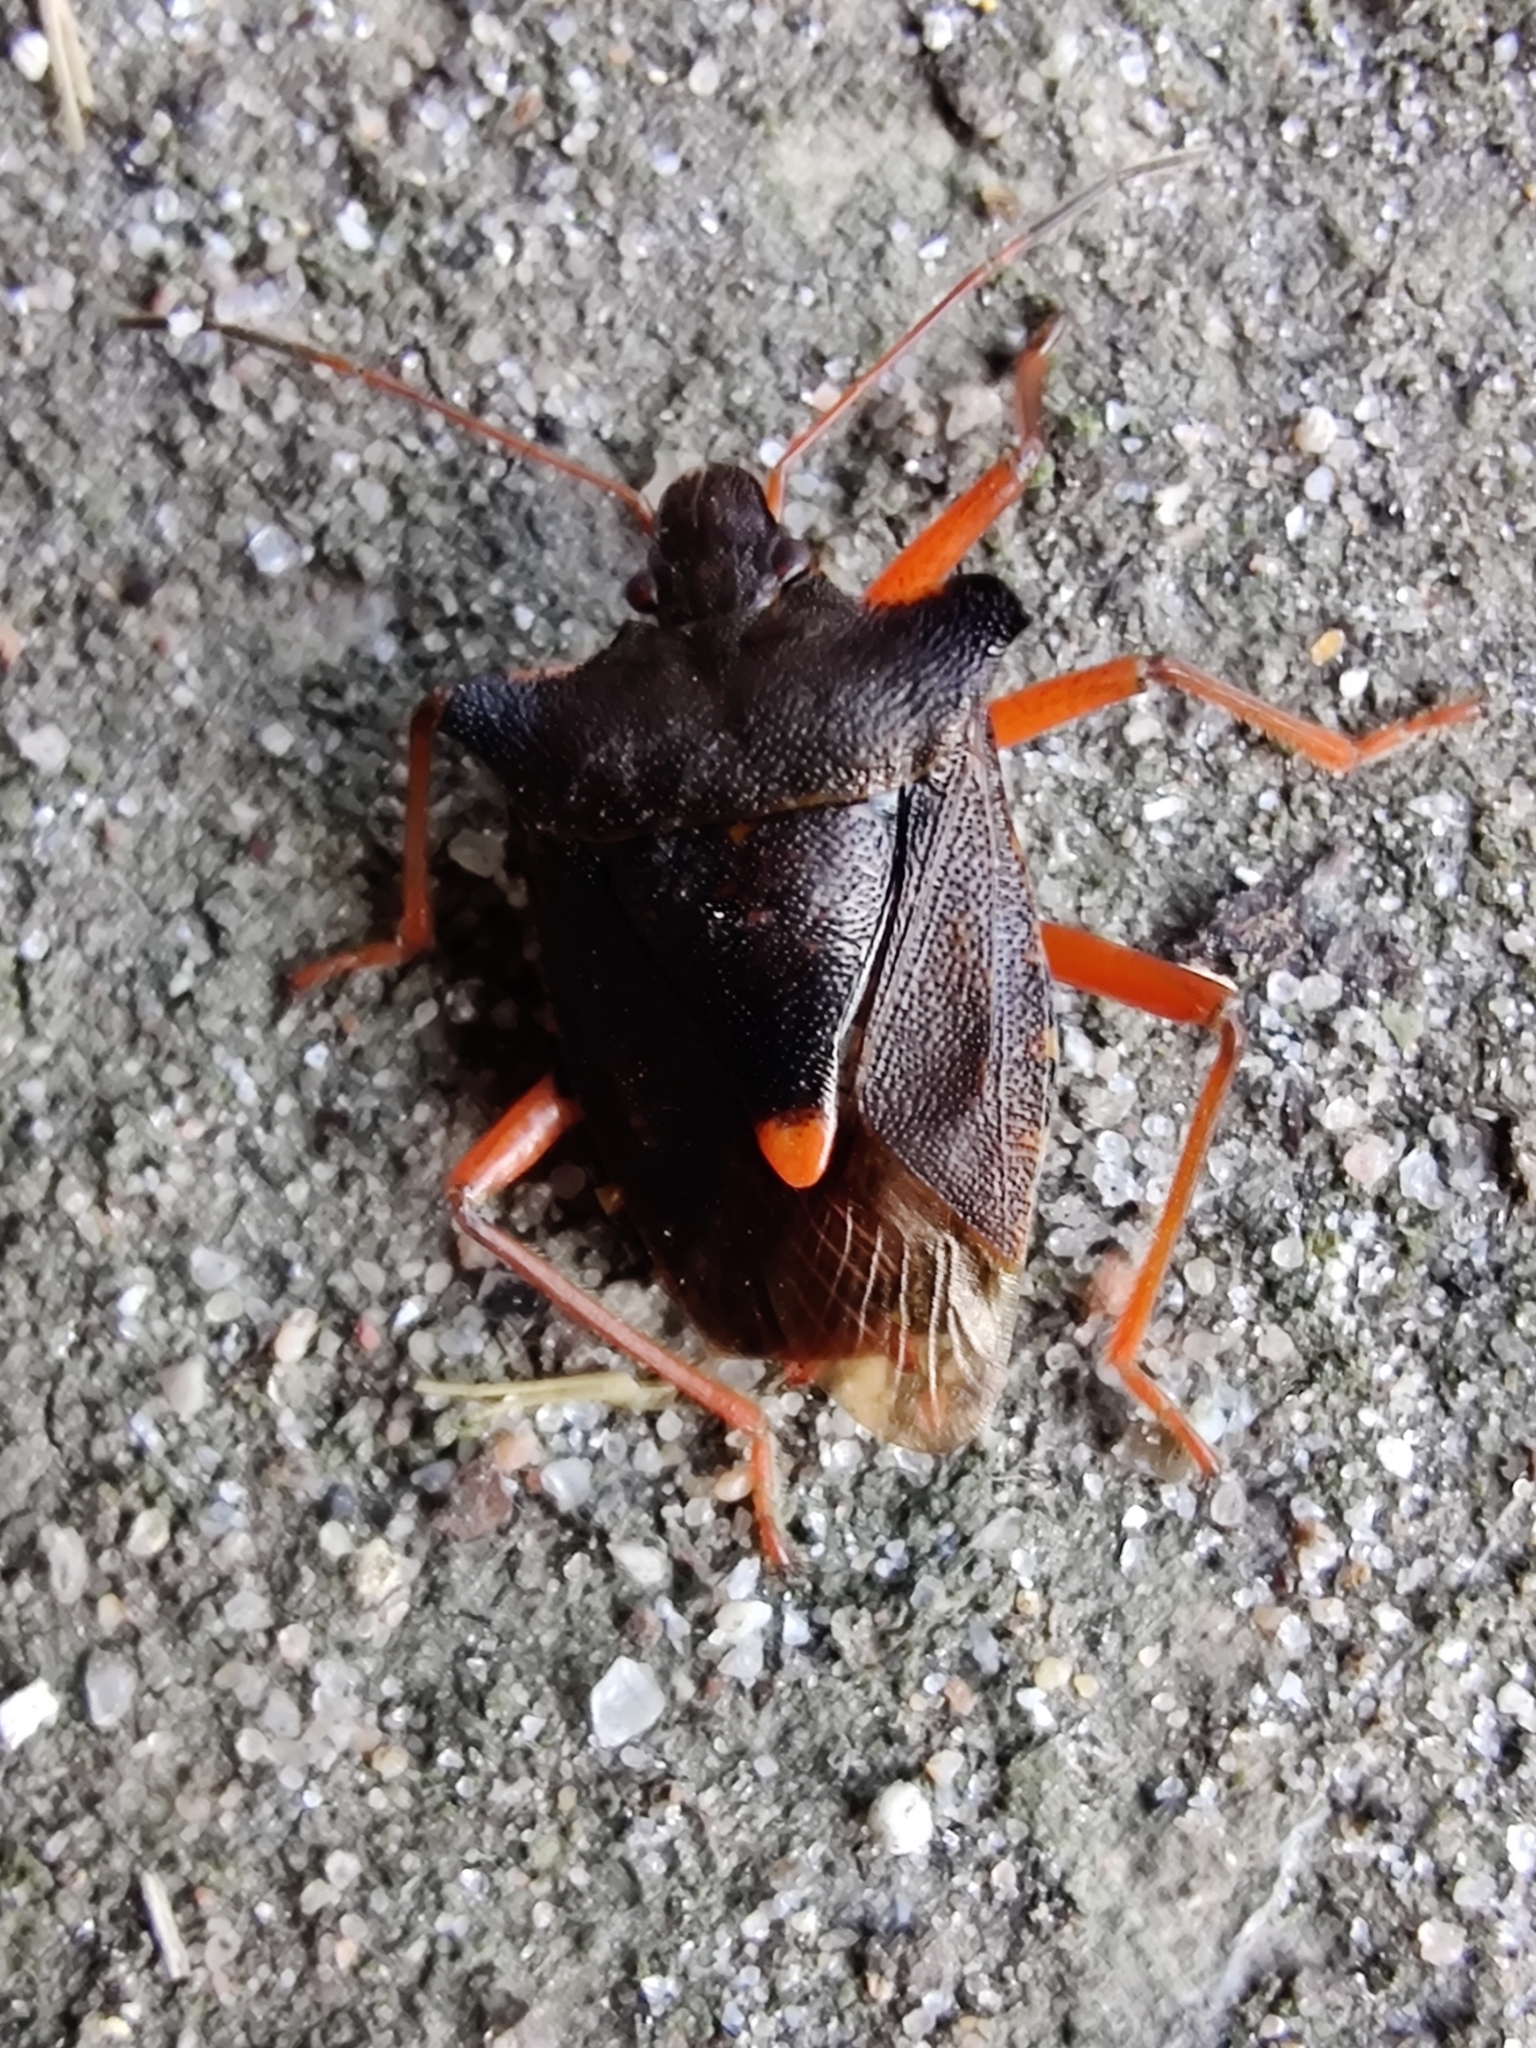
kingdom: Animalia
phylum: Arthropoda
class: Insecta
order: Hemiptera
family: Pentatomidae
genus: Pentatoma
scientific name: Pentatoma rufipes
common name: Forest bug
